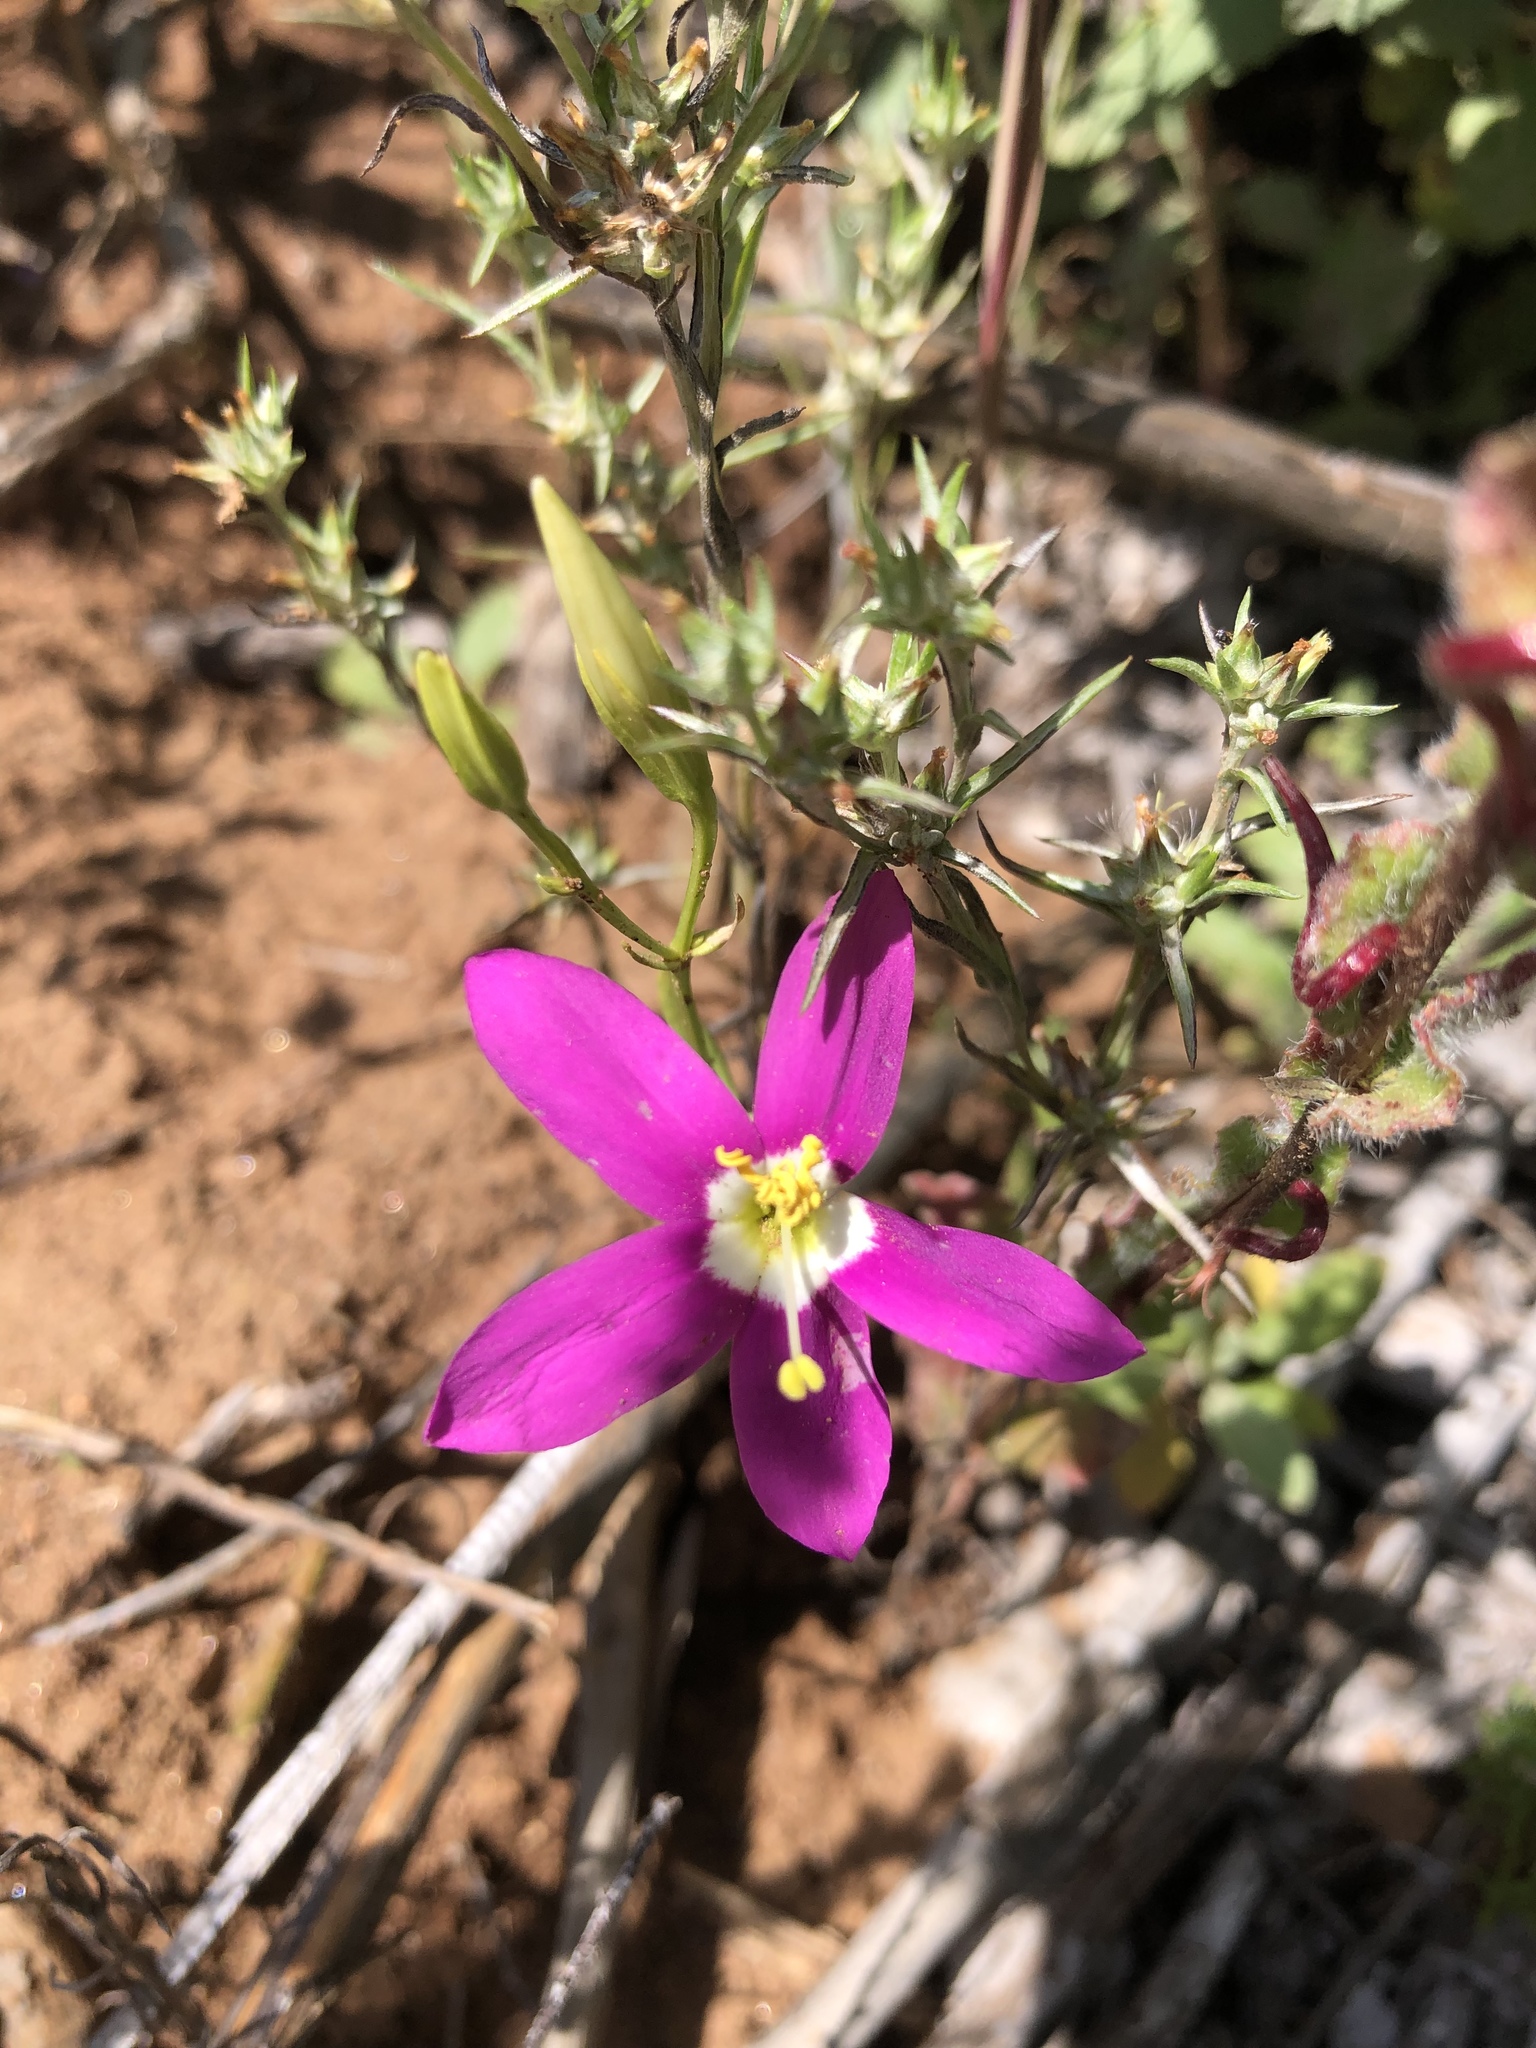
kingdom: Plantae
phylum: Tracheophyta
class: Magnoliopsida
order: Gentianales
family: Gentianaceae
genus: Zeltnera
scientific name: Zeltnera venusta
